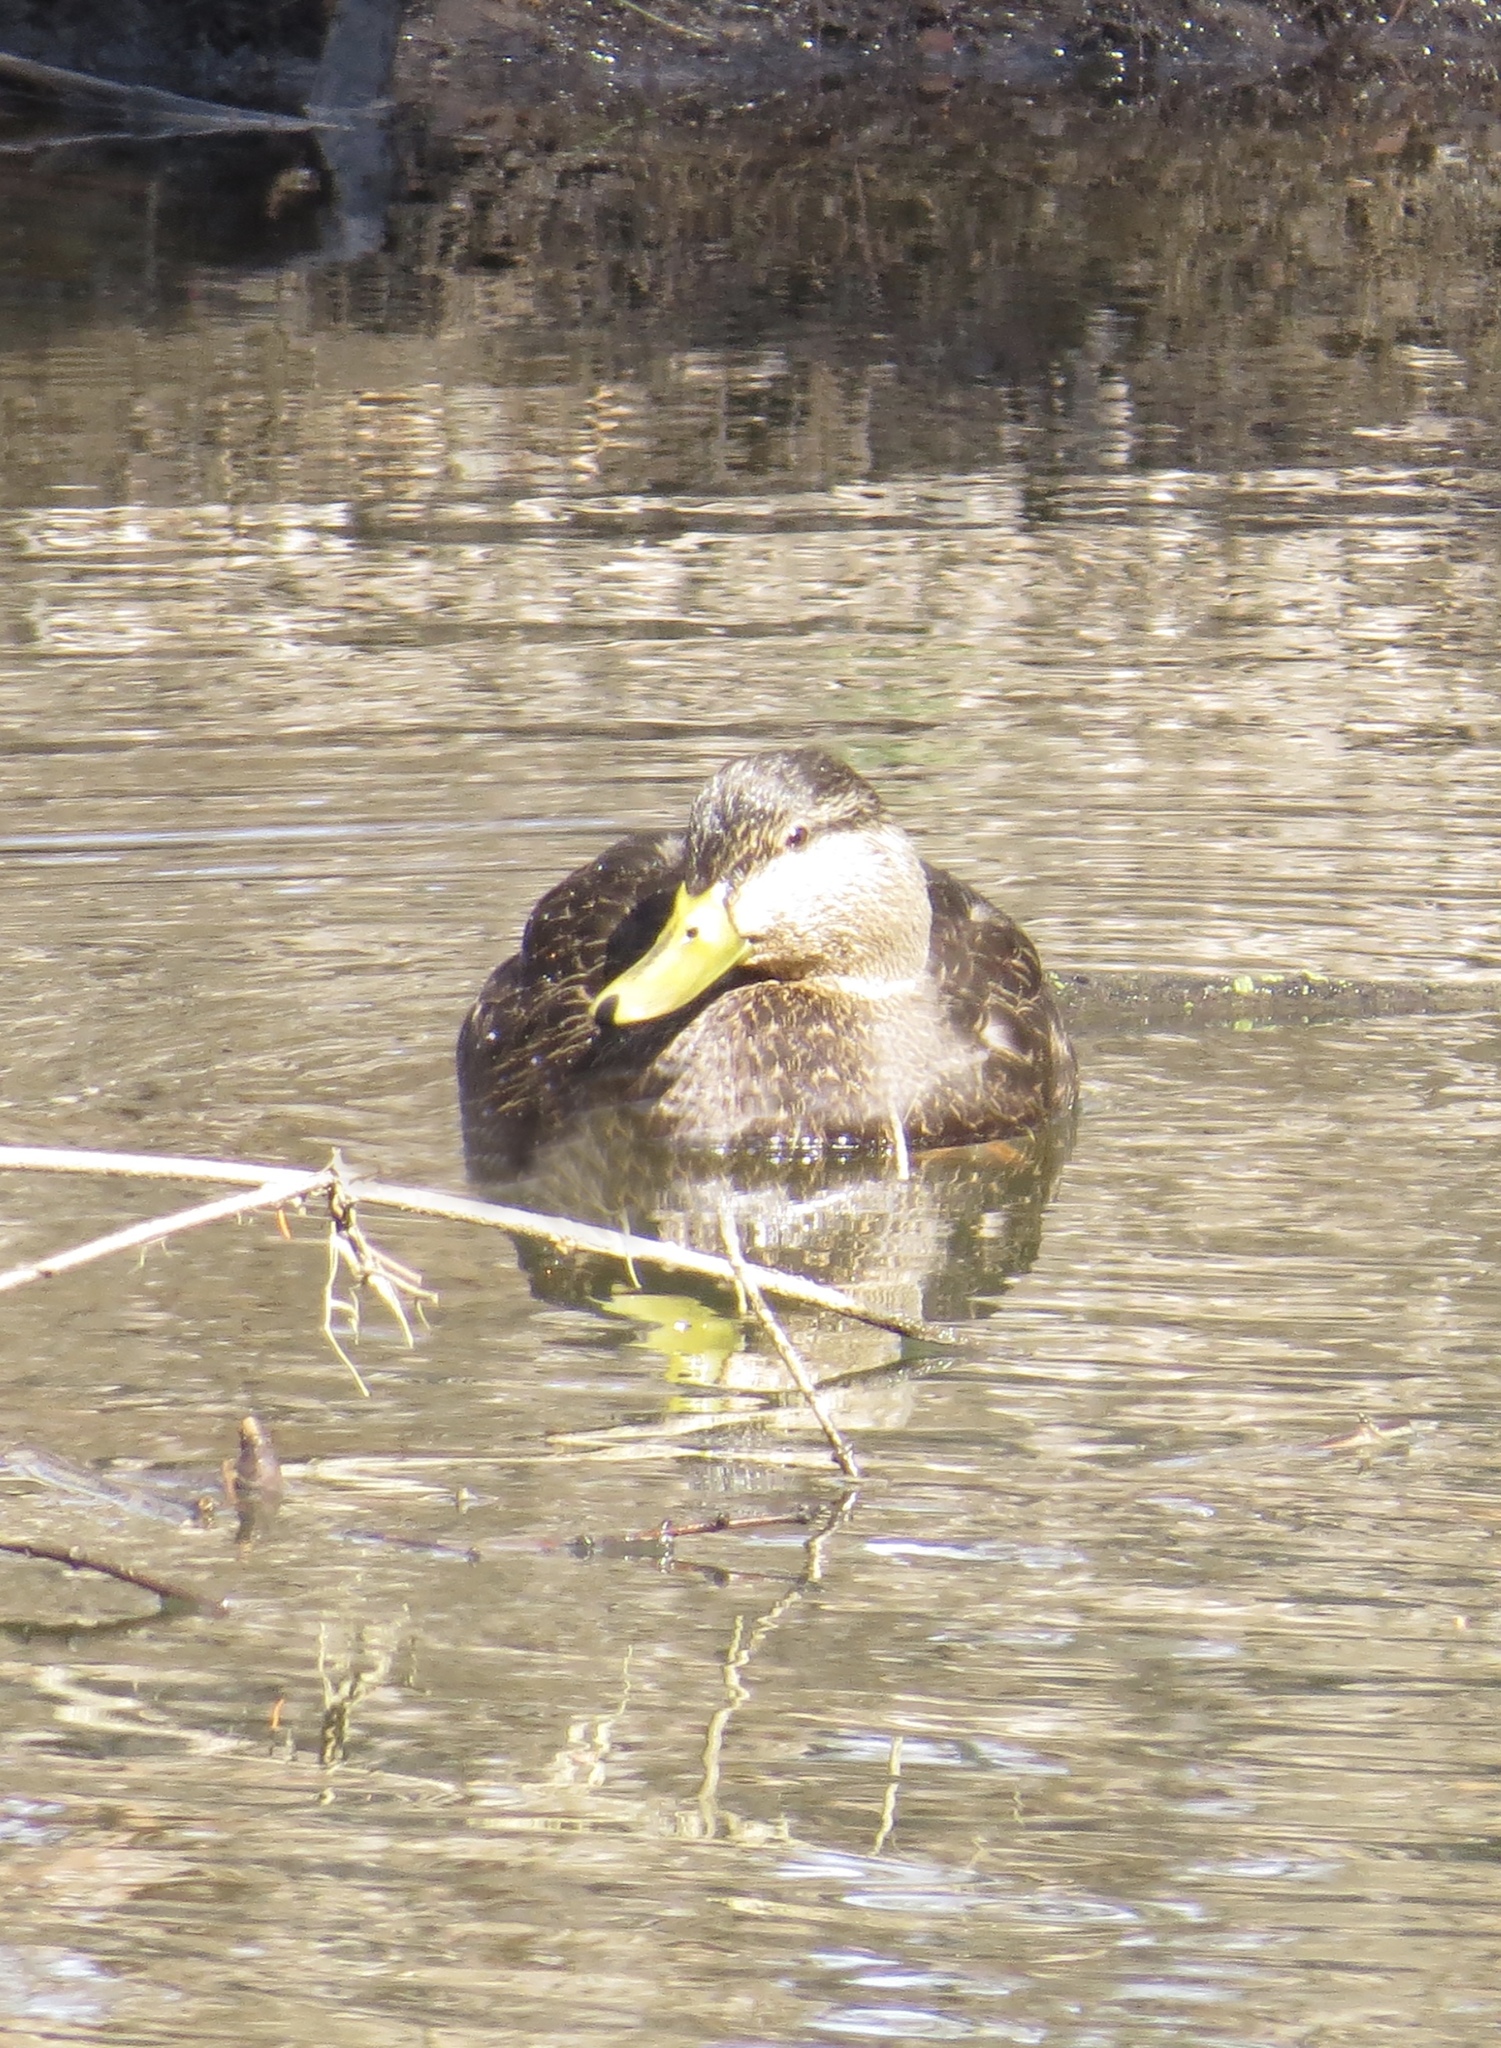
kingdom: Animalia
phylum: Chordata
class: Aves
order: Anseriformes
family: Anatidae
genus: Anas
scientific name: Anas rubripes
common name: American black duck
